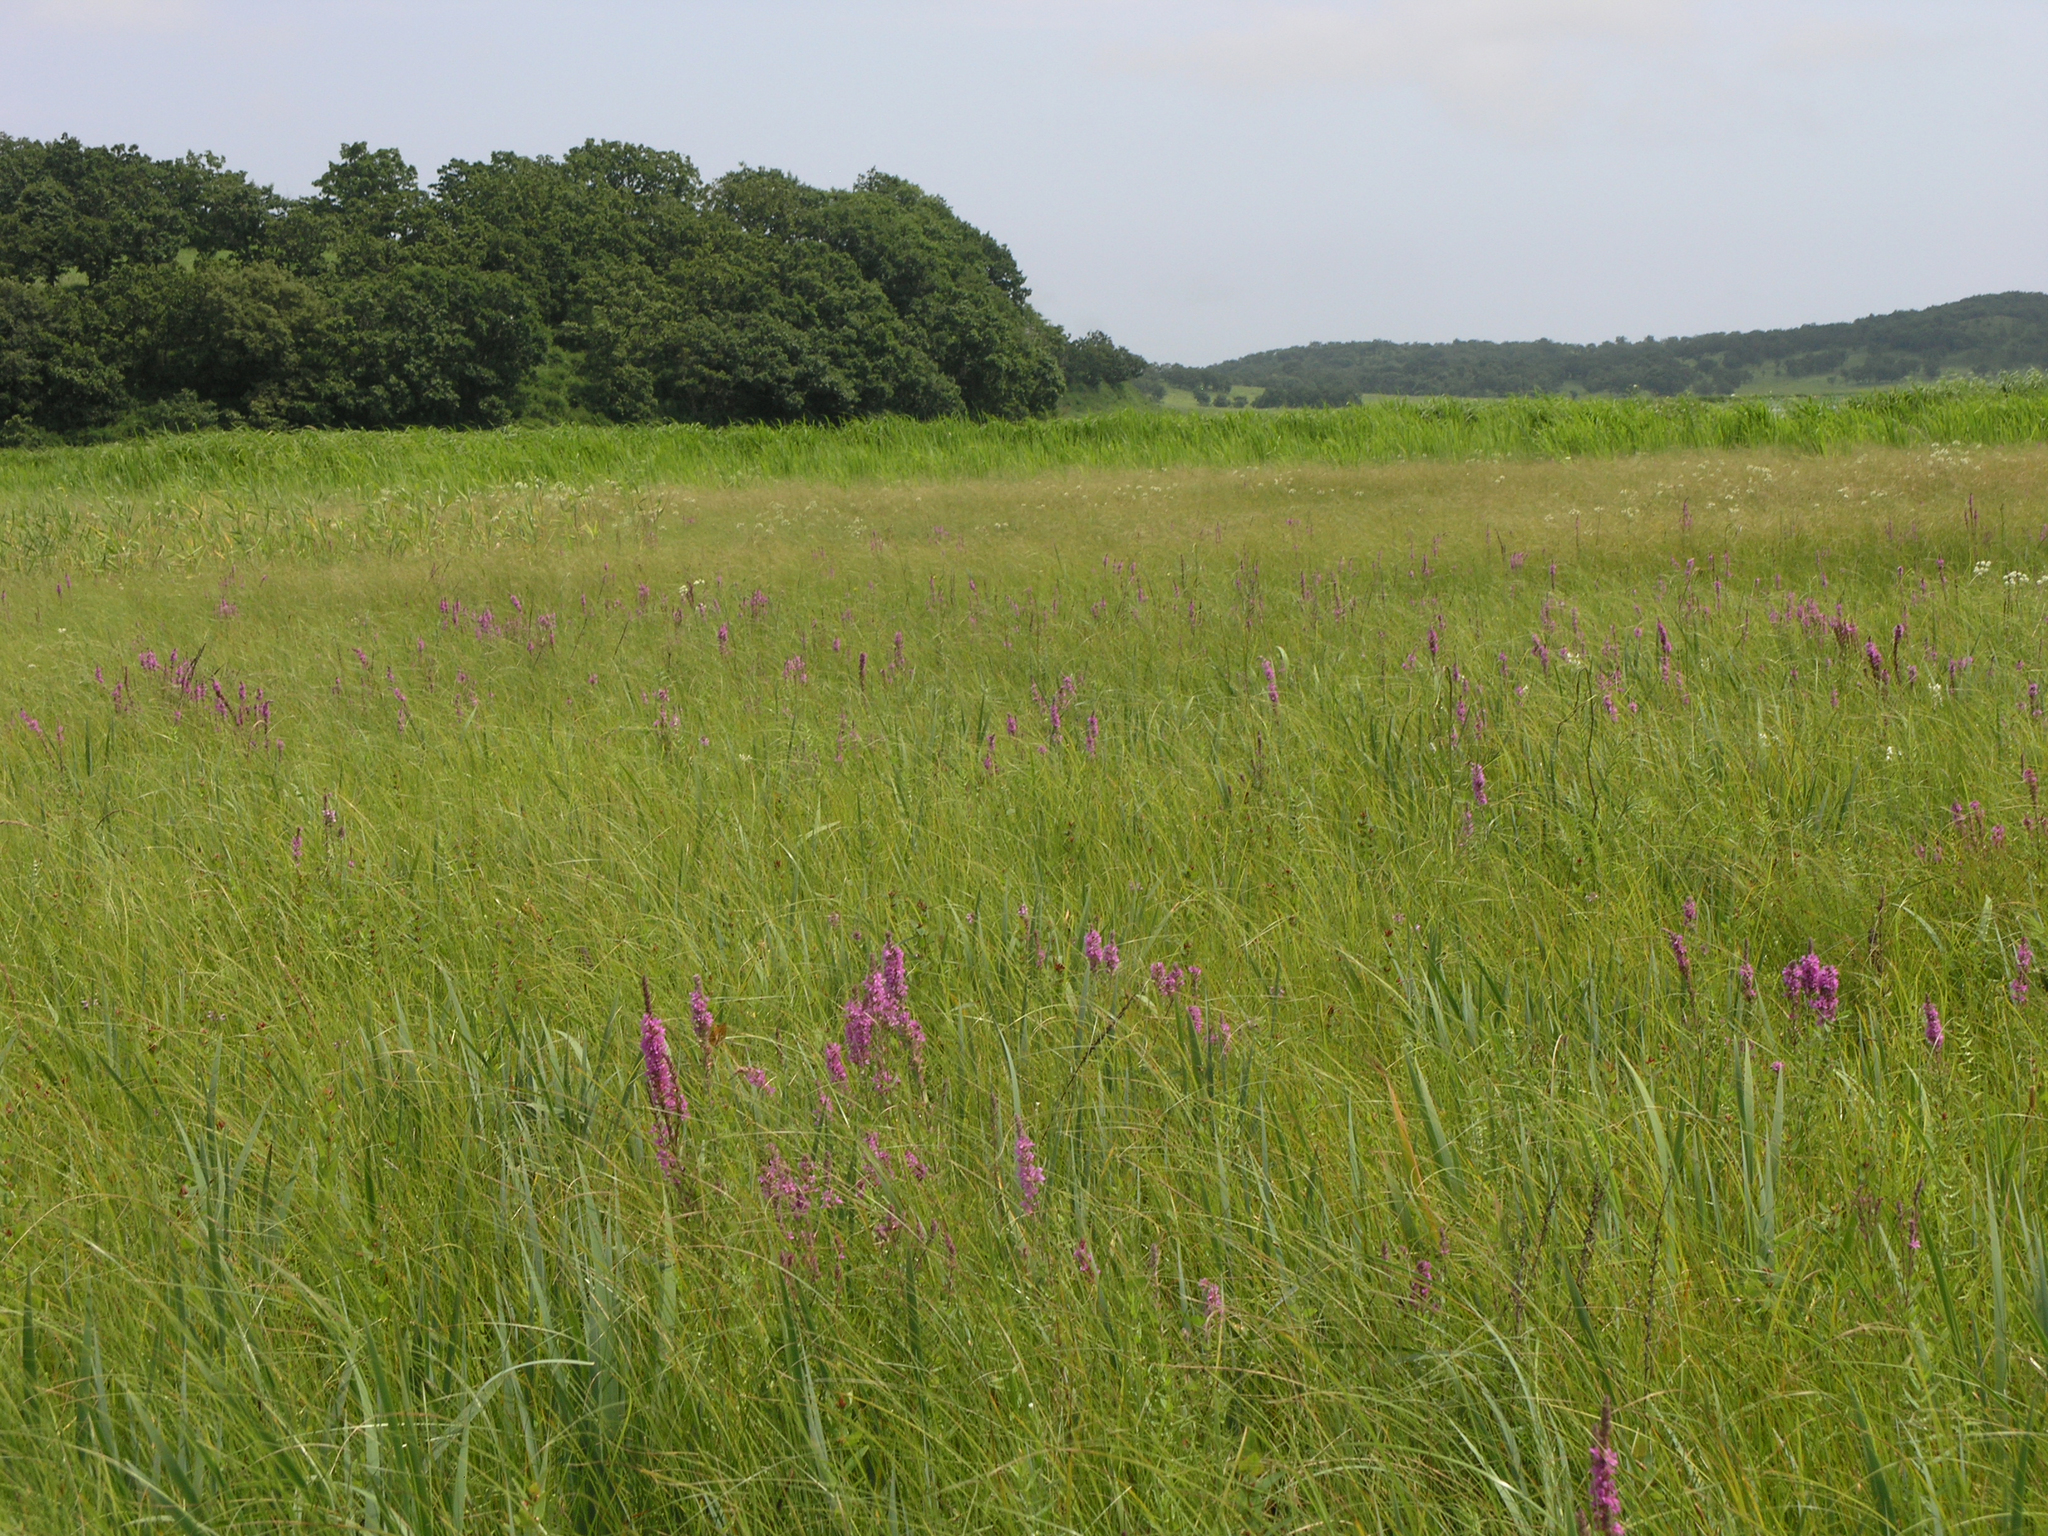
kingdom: Plantae
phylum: Tracheophyta
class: Magnoliopsida
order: Myrtales
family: Lythraceae
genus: Lythrum
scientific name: Lythrum salicaria
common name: Purple loosestrife
